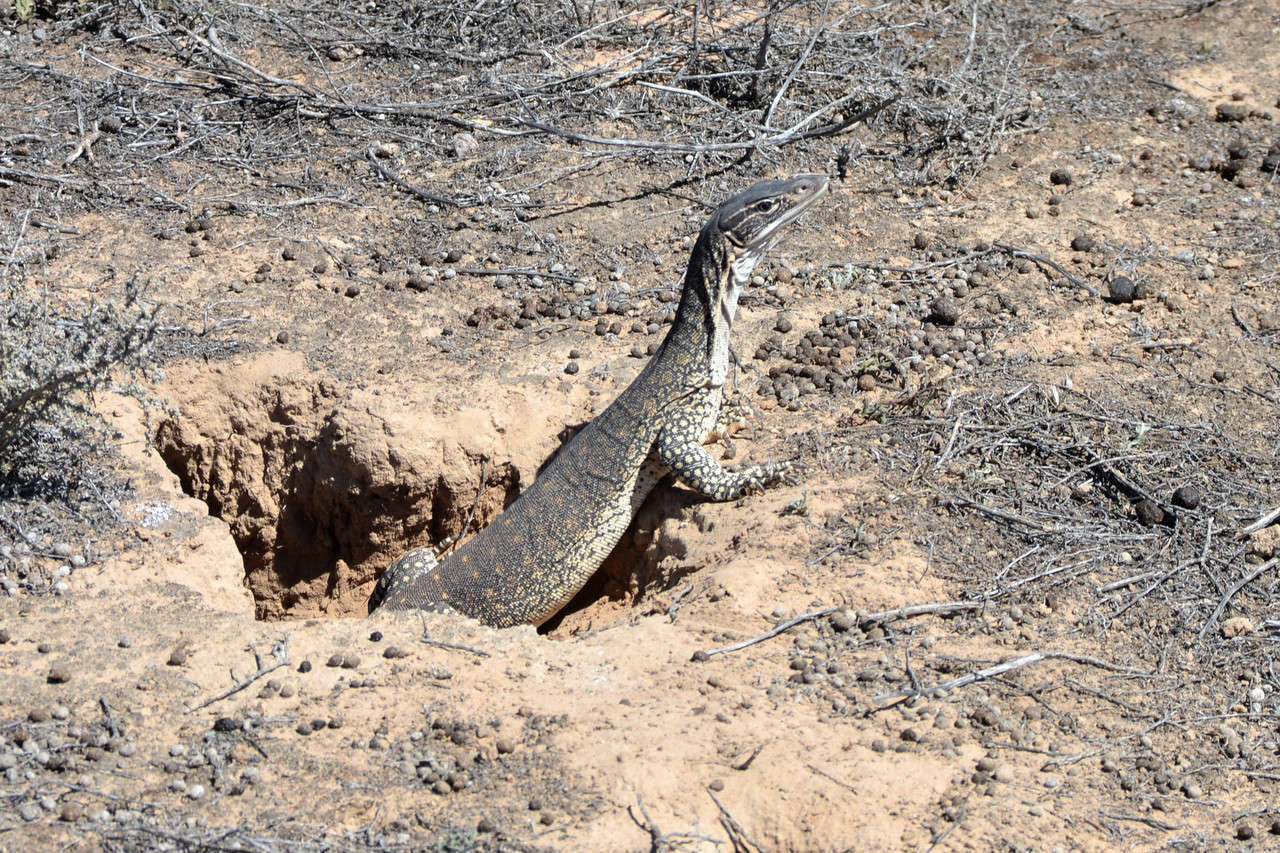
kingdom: Animalia
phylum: Chordata
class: Squamata
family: Varanidae
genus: Varanus
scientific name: Varanus gouldii
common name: Gould's goanna
